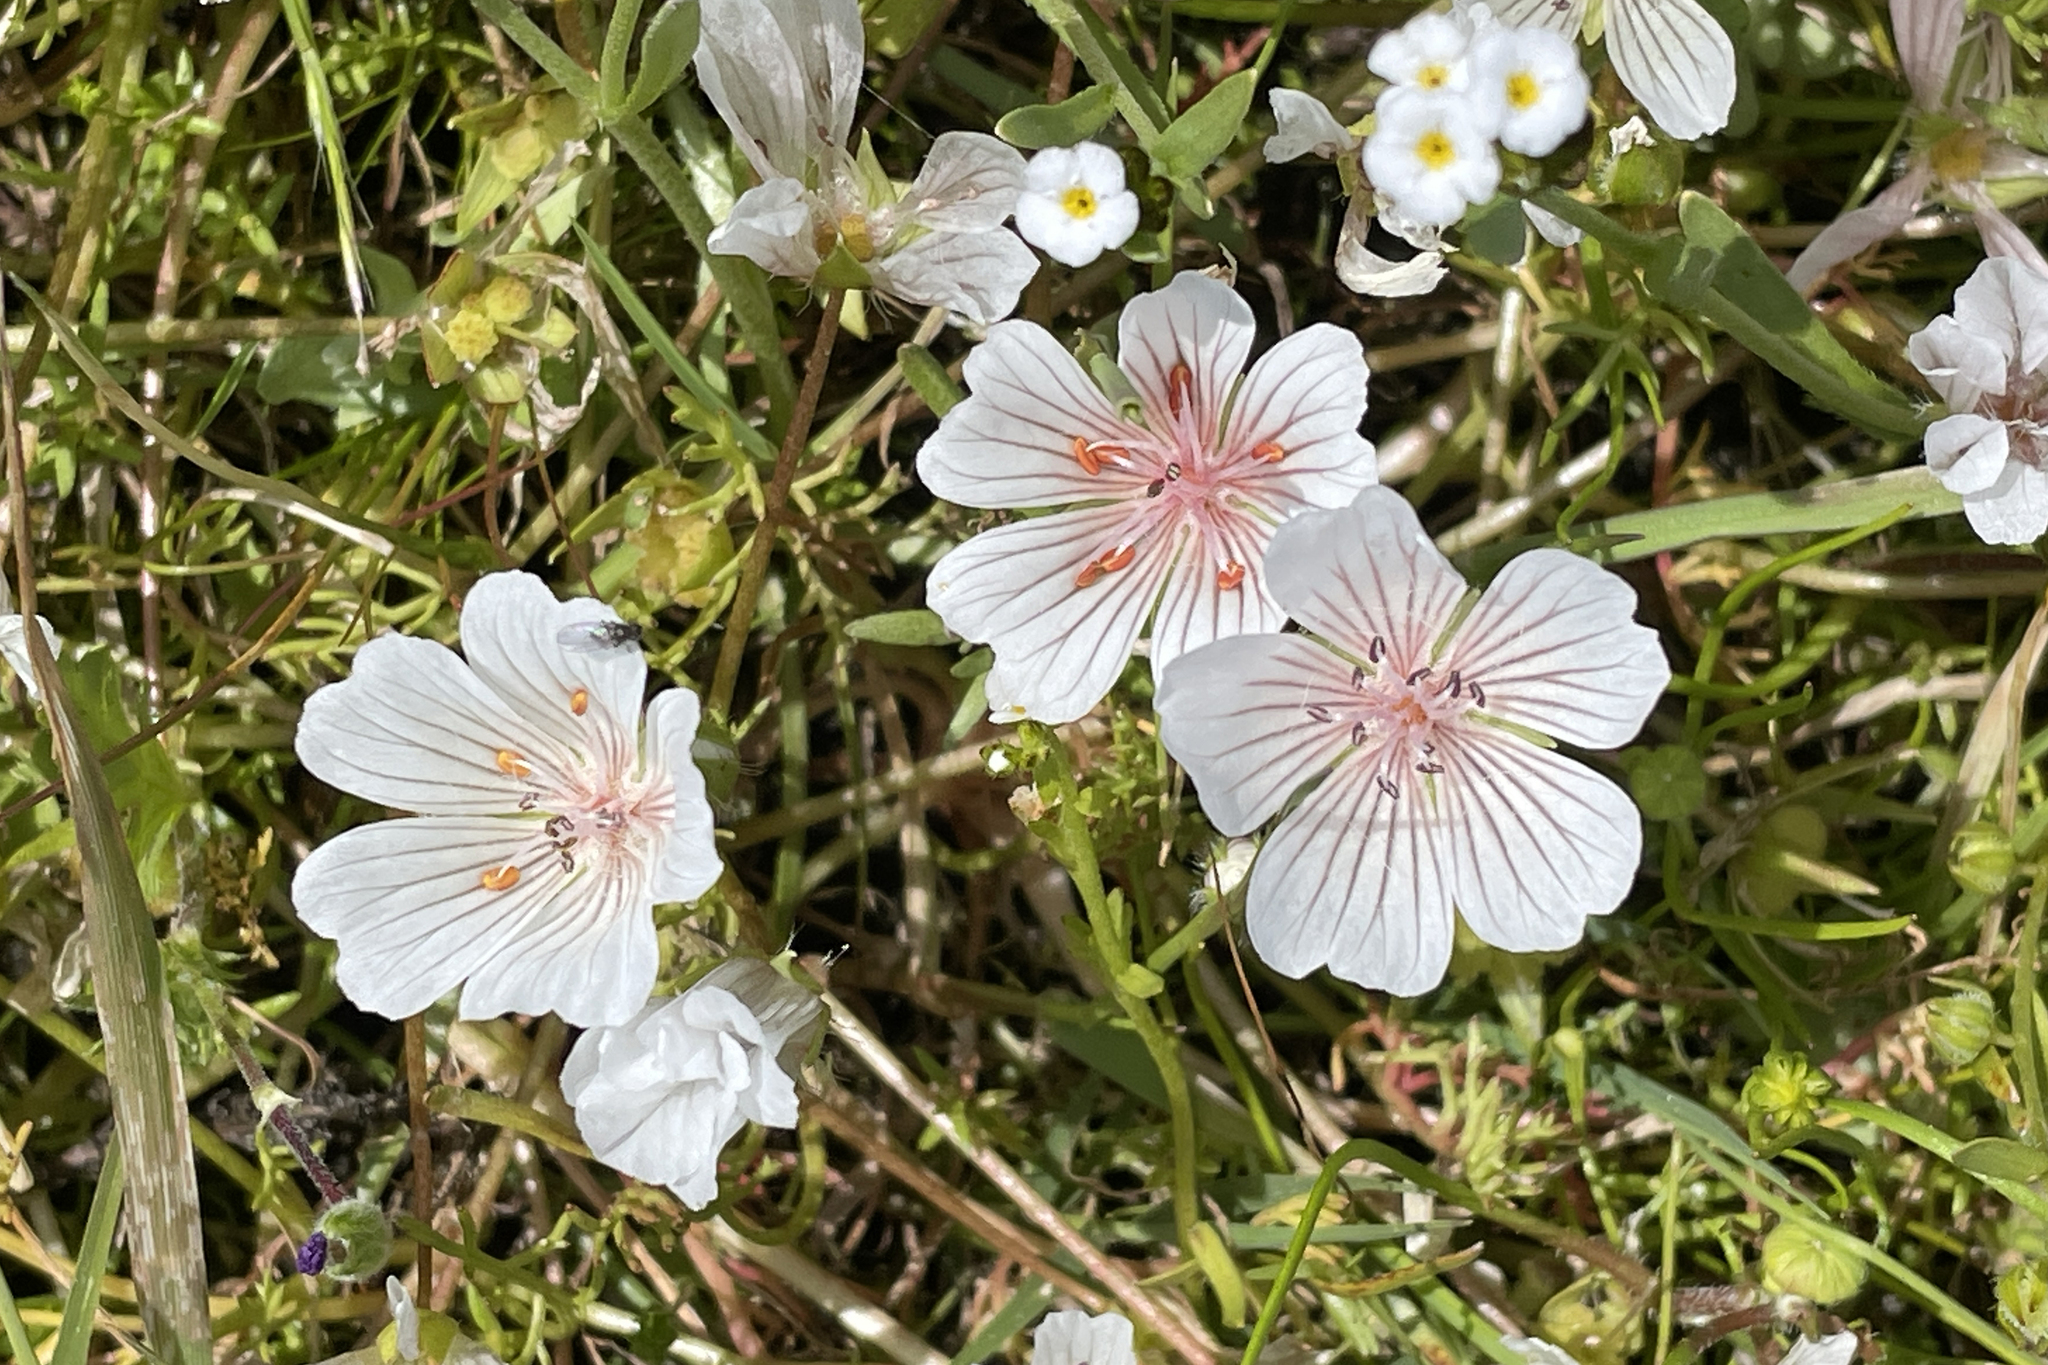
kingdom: Plantae
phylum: Tracheophyta
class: Magnoliopsida
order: Brassicales
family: Limnanthaceae
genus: Limnanthes
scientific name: Limnanthes douglasii
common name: Meadow-foam
